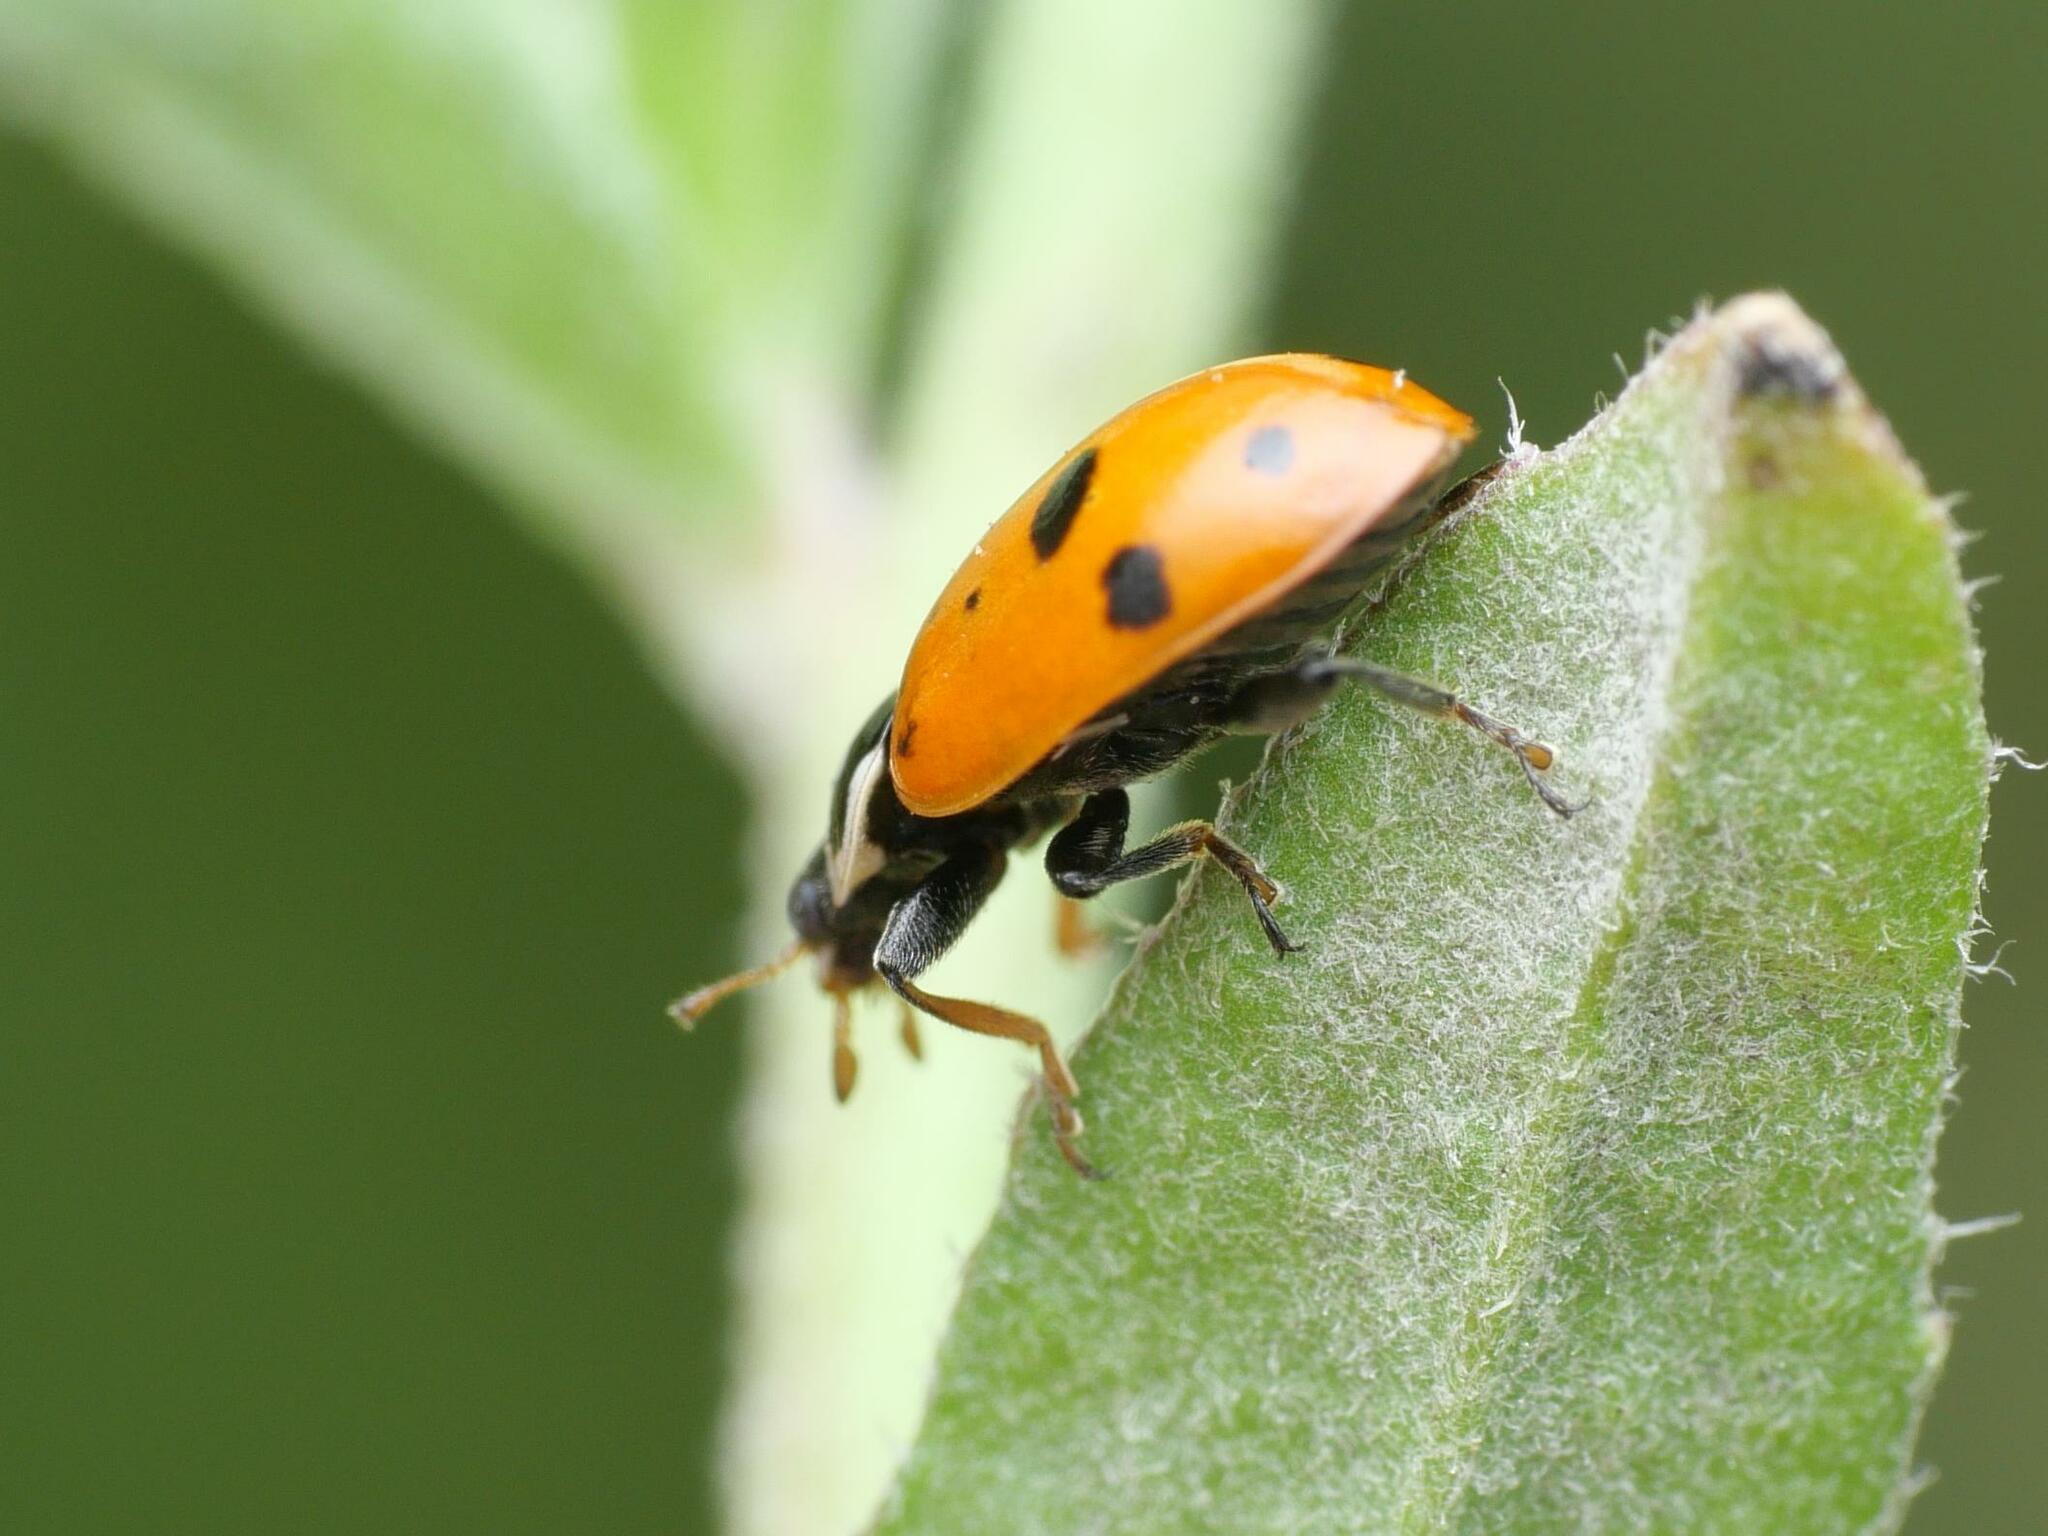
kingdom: Animalia
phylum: Arthropoda
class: Insecta
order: Coleoptera
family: Coccinellidae
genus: Hippodamia
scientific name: Hippodamia variegata
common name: Ladybird beetle
